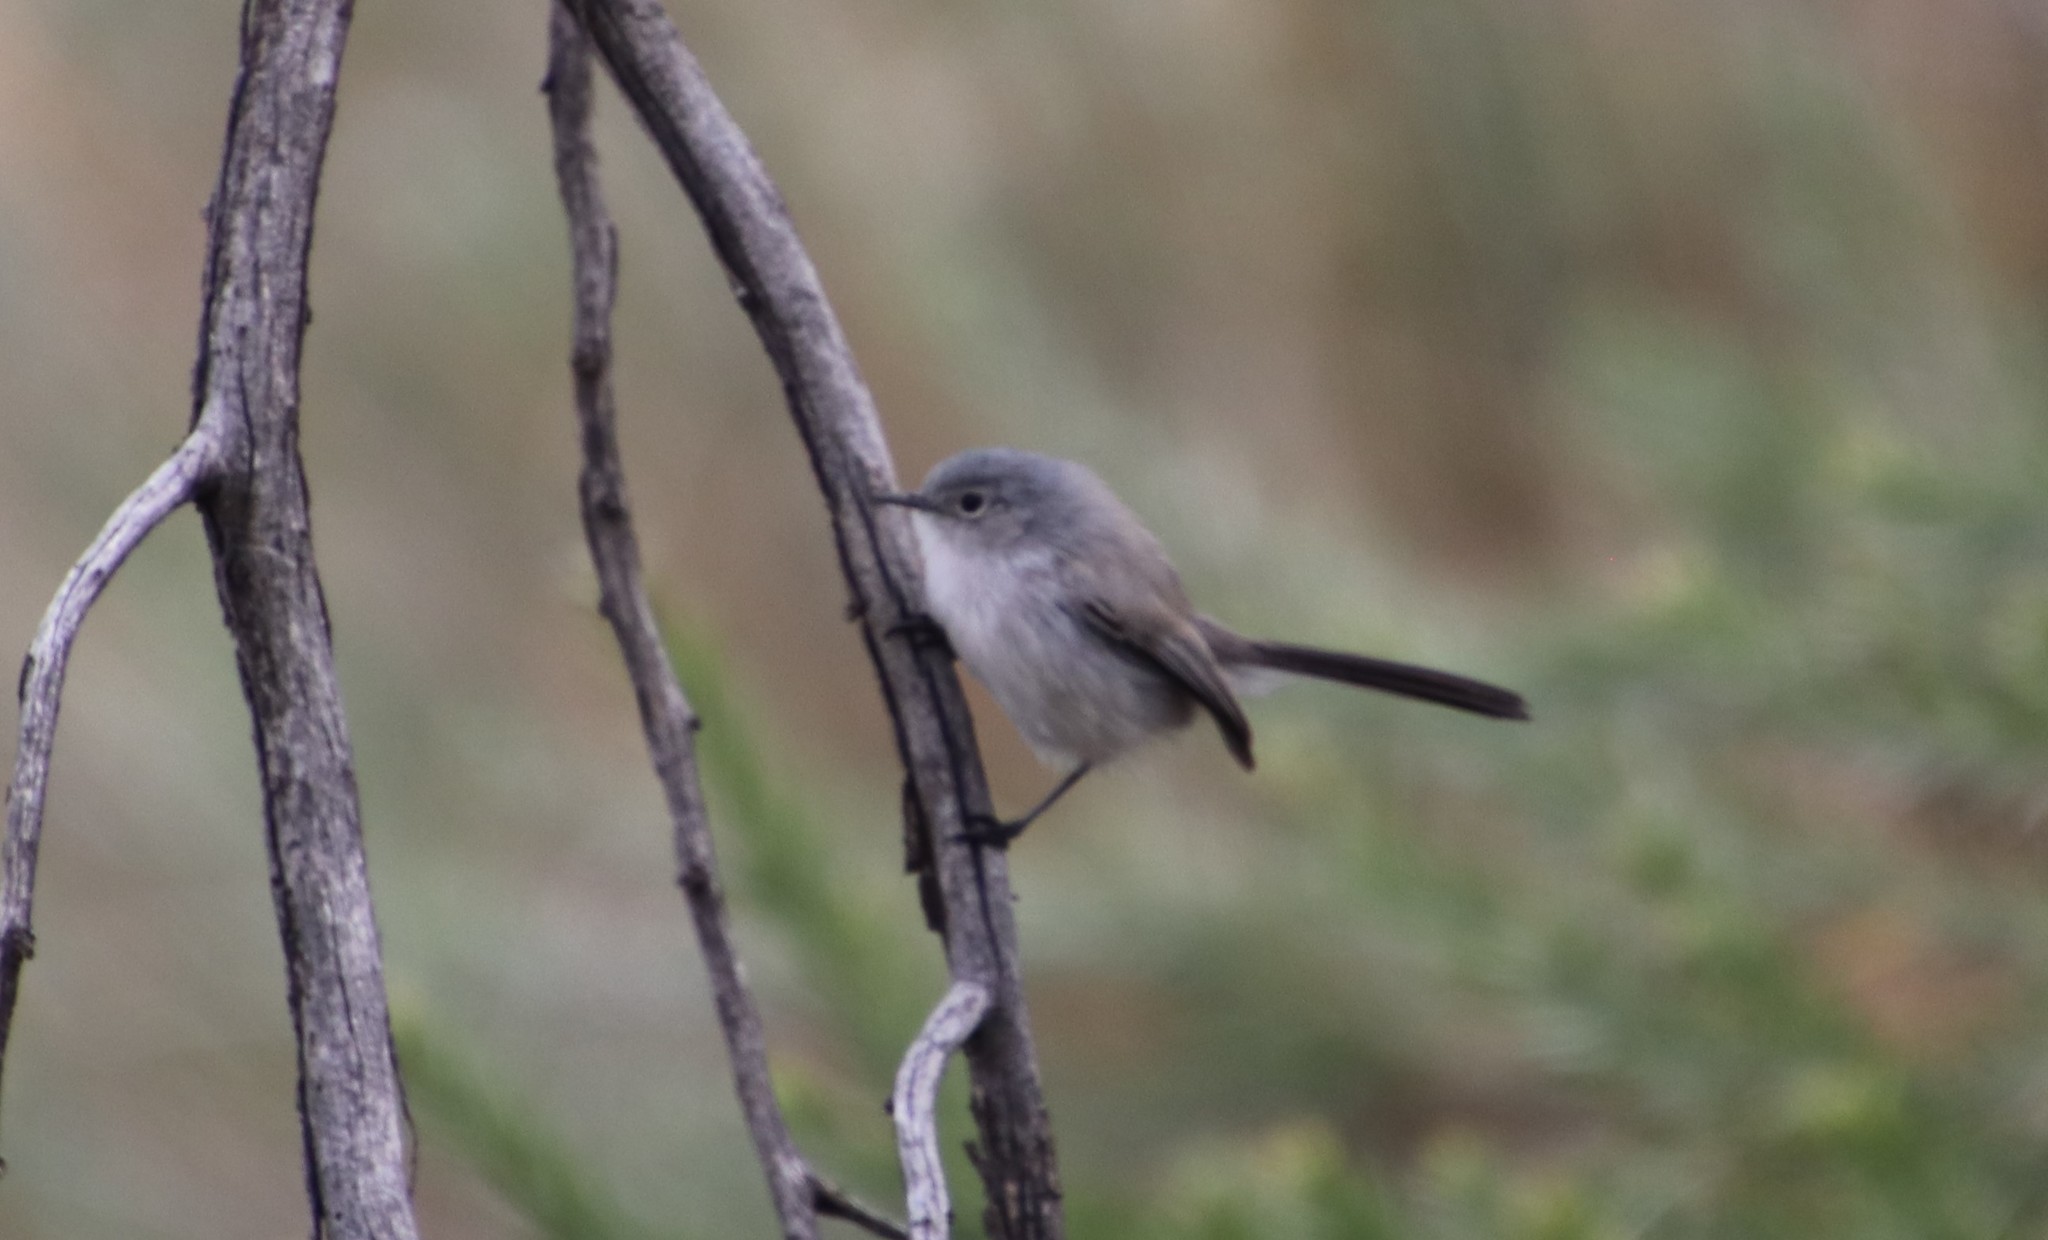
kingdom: Animalia
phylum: Chordata
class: Aves
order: Passeriformes
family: Polioptilidae
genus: Polioptila
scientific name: Polioptila melanura
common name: Black-tailed gnatcatcher
